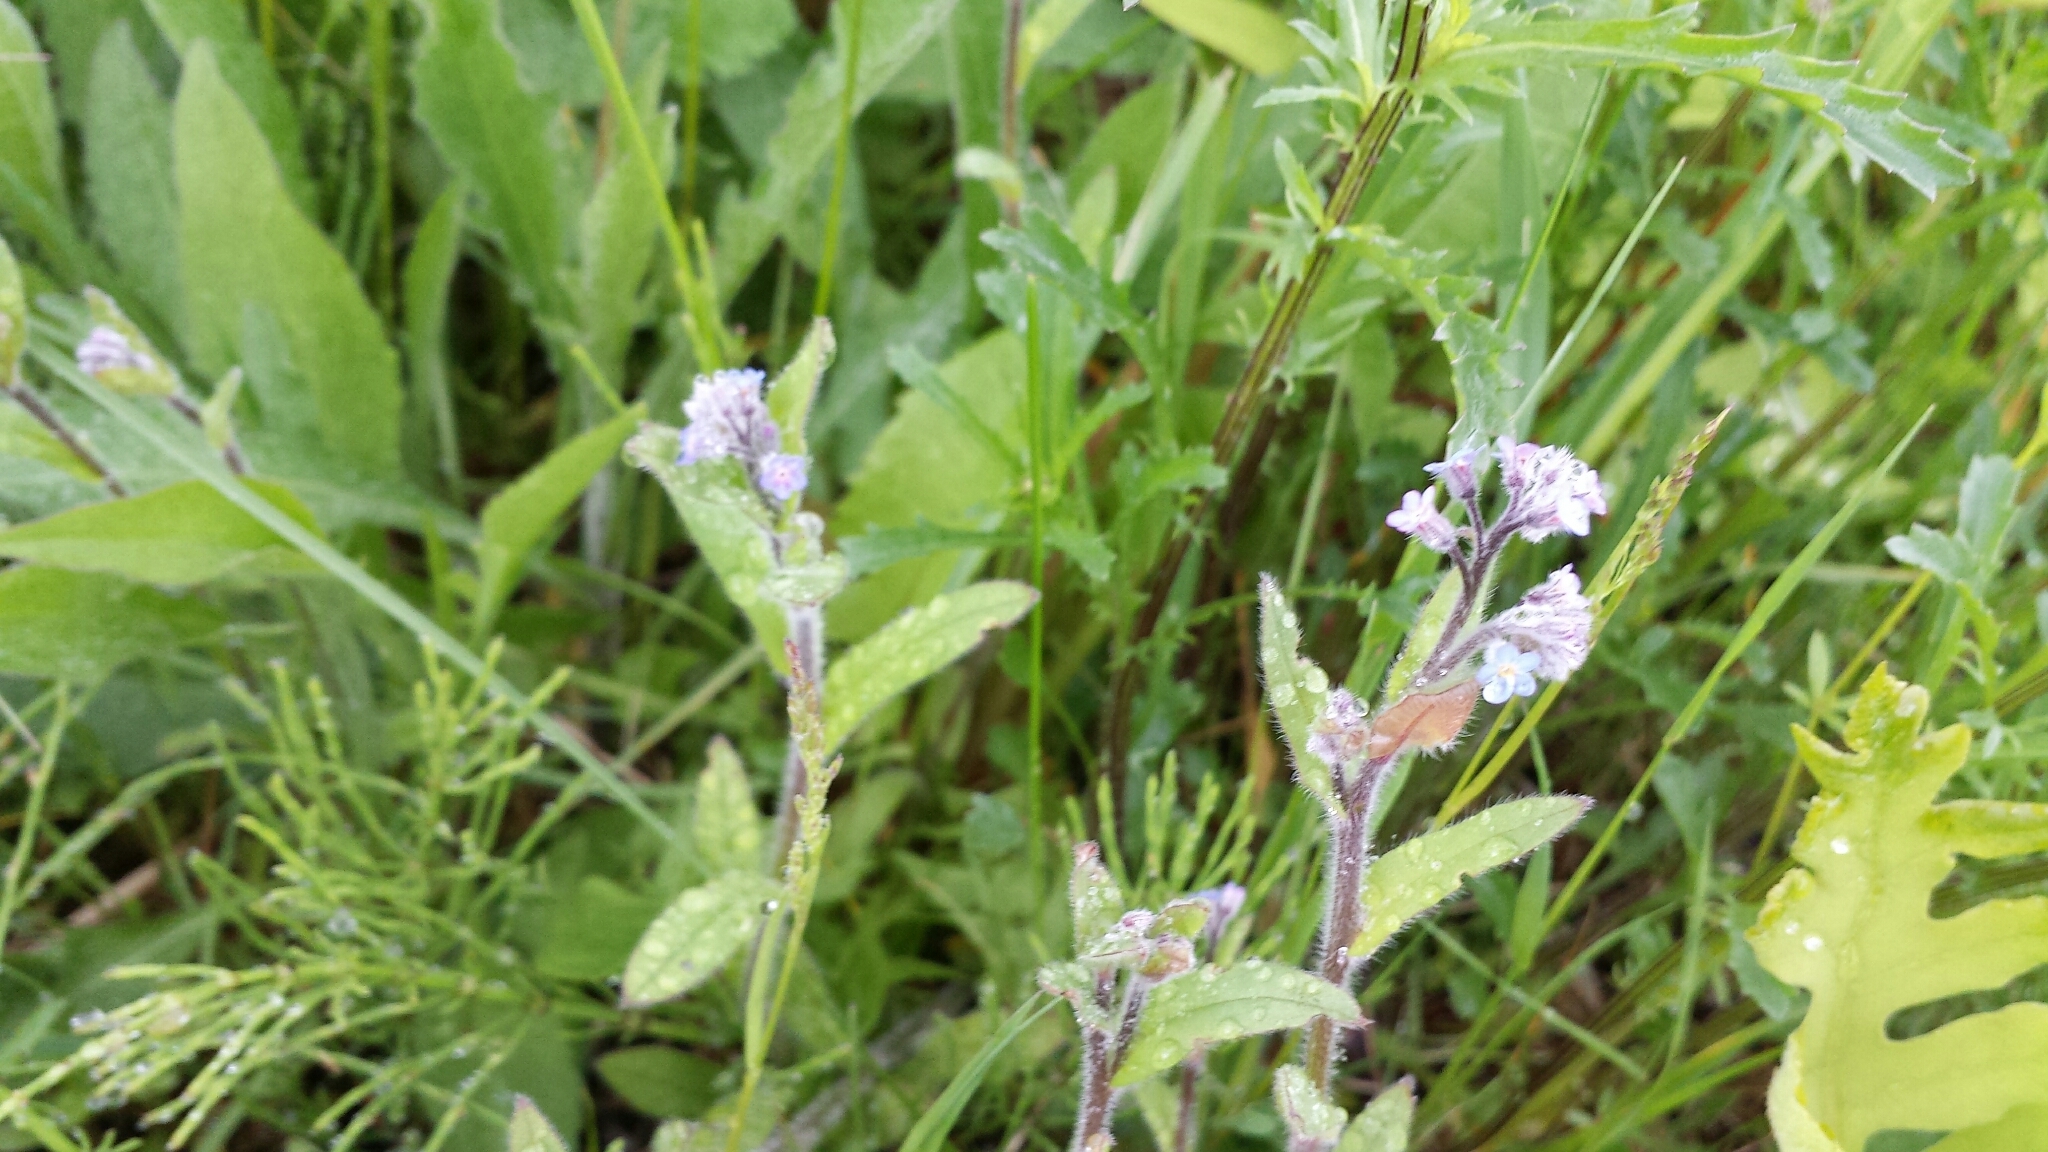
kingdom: Plantae
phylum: Tracheophyta
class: Magnoliopsida
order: Boraginales
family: Boraginaceae
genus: Myosotis
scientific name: Myosotis arvensis
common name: Field forget-me-not
